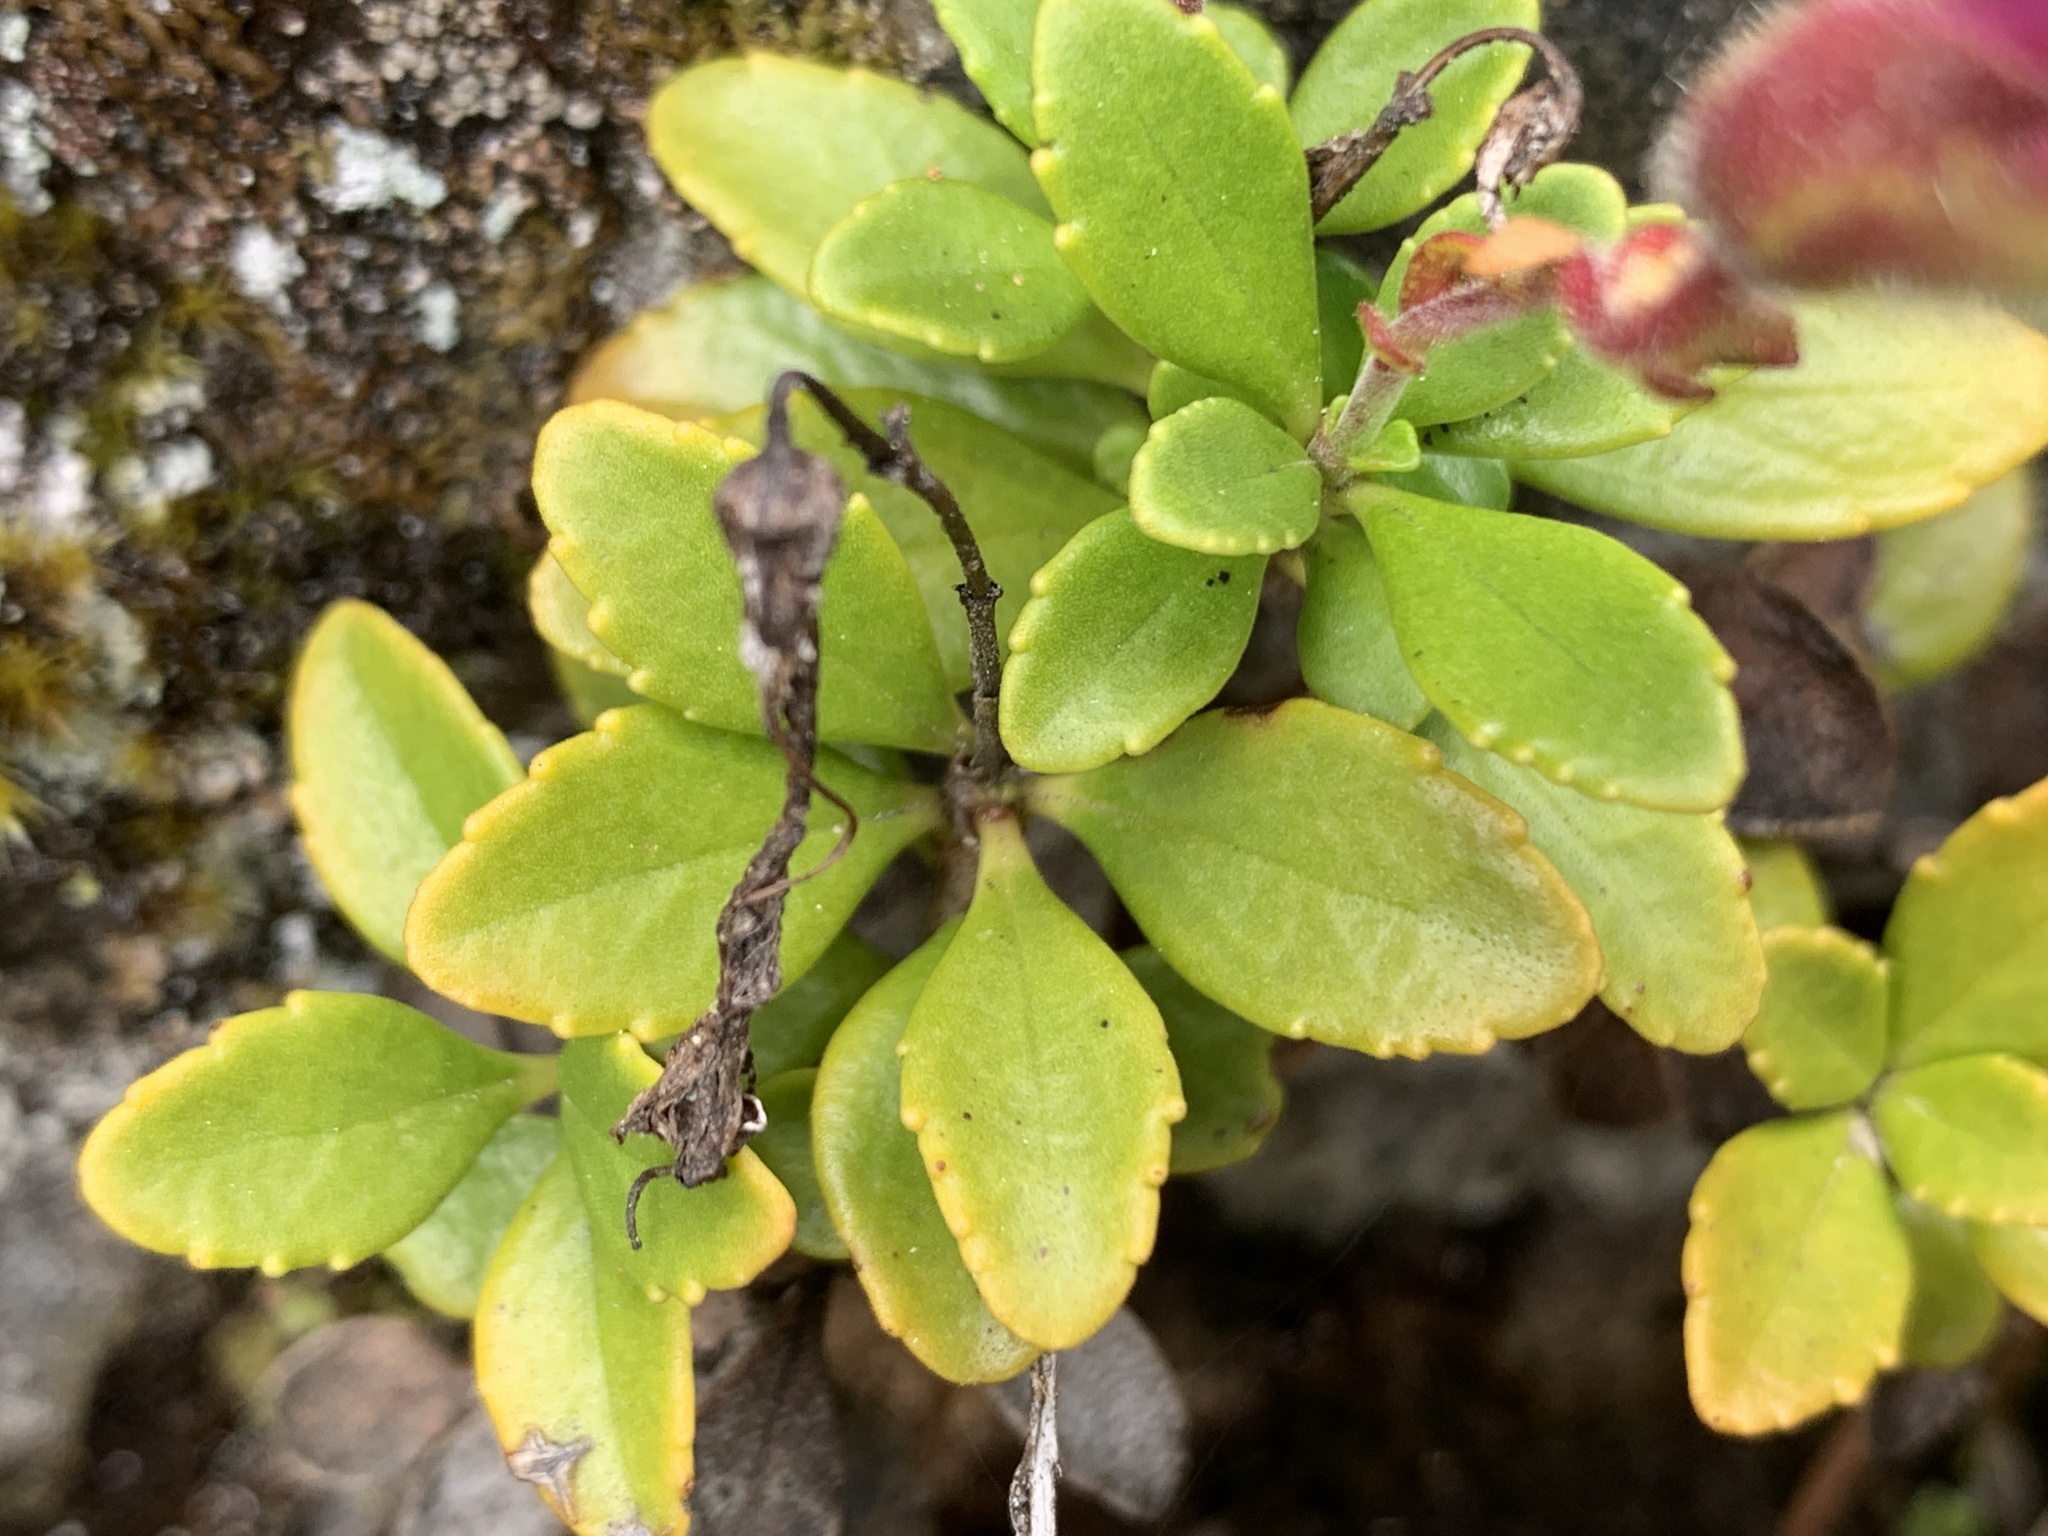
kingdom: Plantae
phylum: Tracheophyta
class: Magnoliopsida
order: Lamiales
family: Plantaginaceae
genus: Penstemon
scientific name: Penstemon davidsonii
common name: Davidson's penstemon
